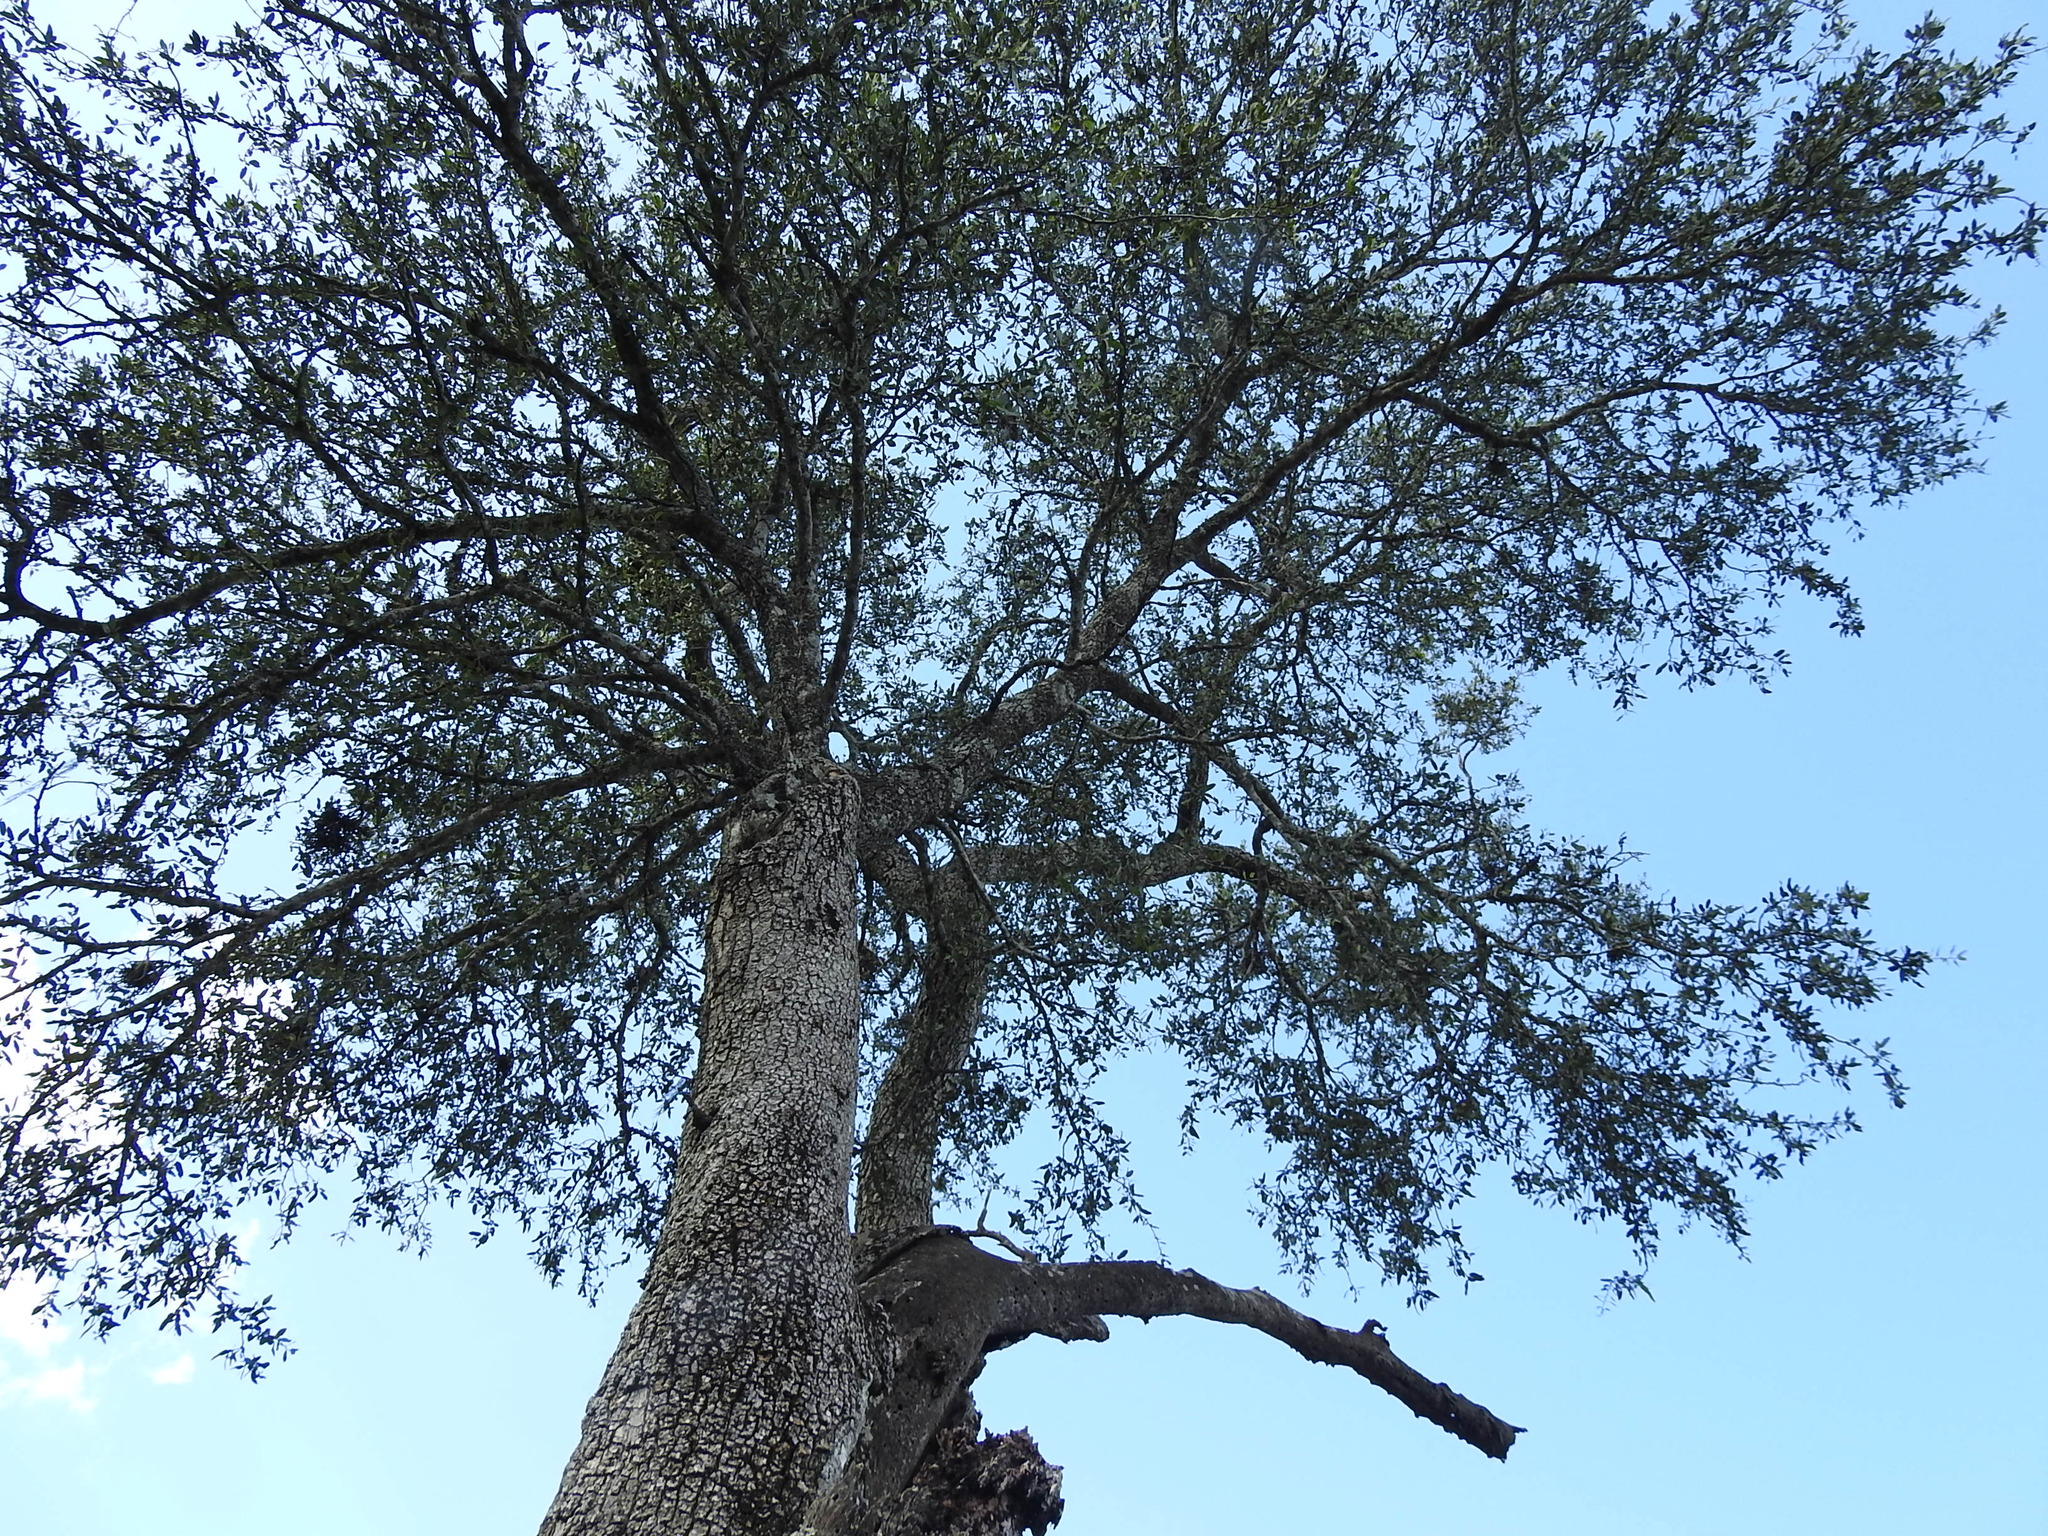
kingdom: Plantae
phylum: Tracheophyta
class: Magnoliopsida
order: Gentianales
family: Apocynaceae
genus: Aspidosperma
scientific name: Aspidosperma quebracho-blanco
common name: White quebracho
